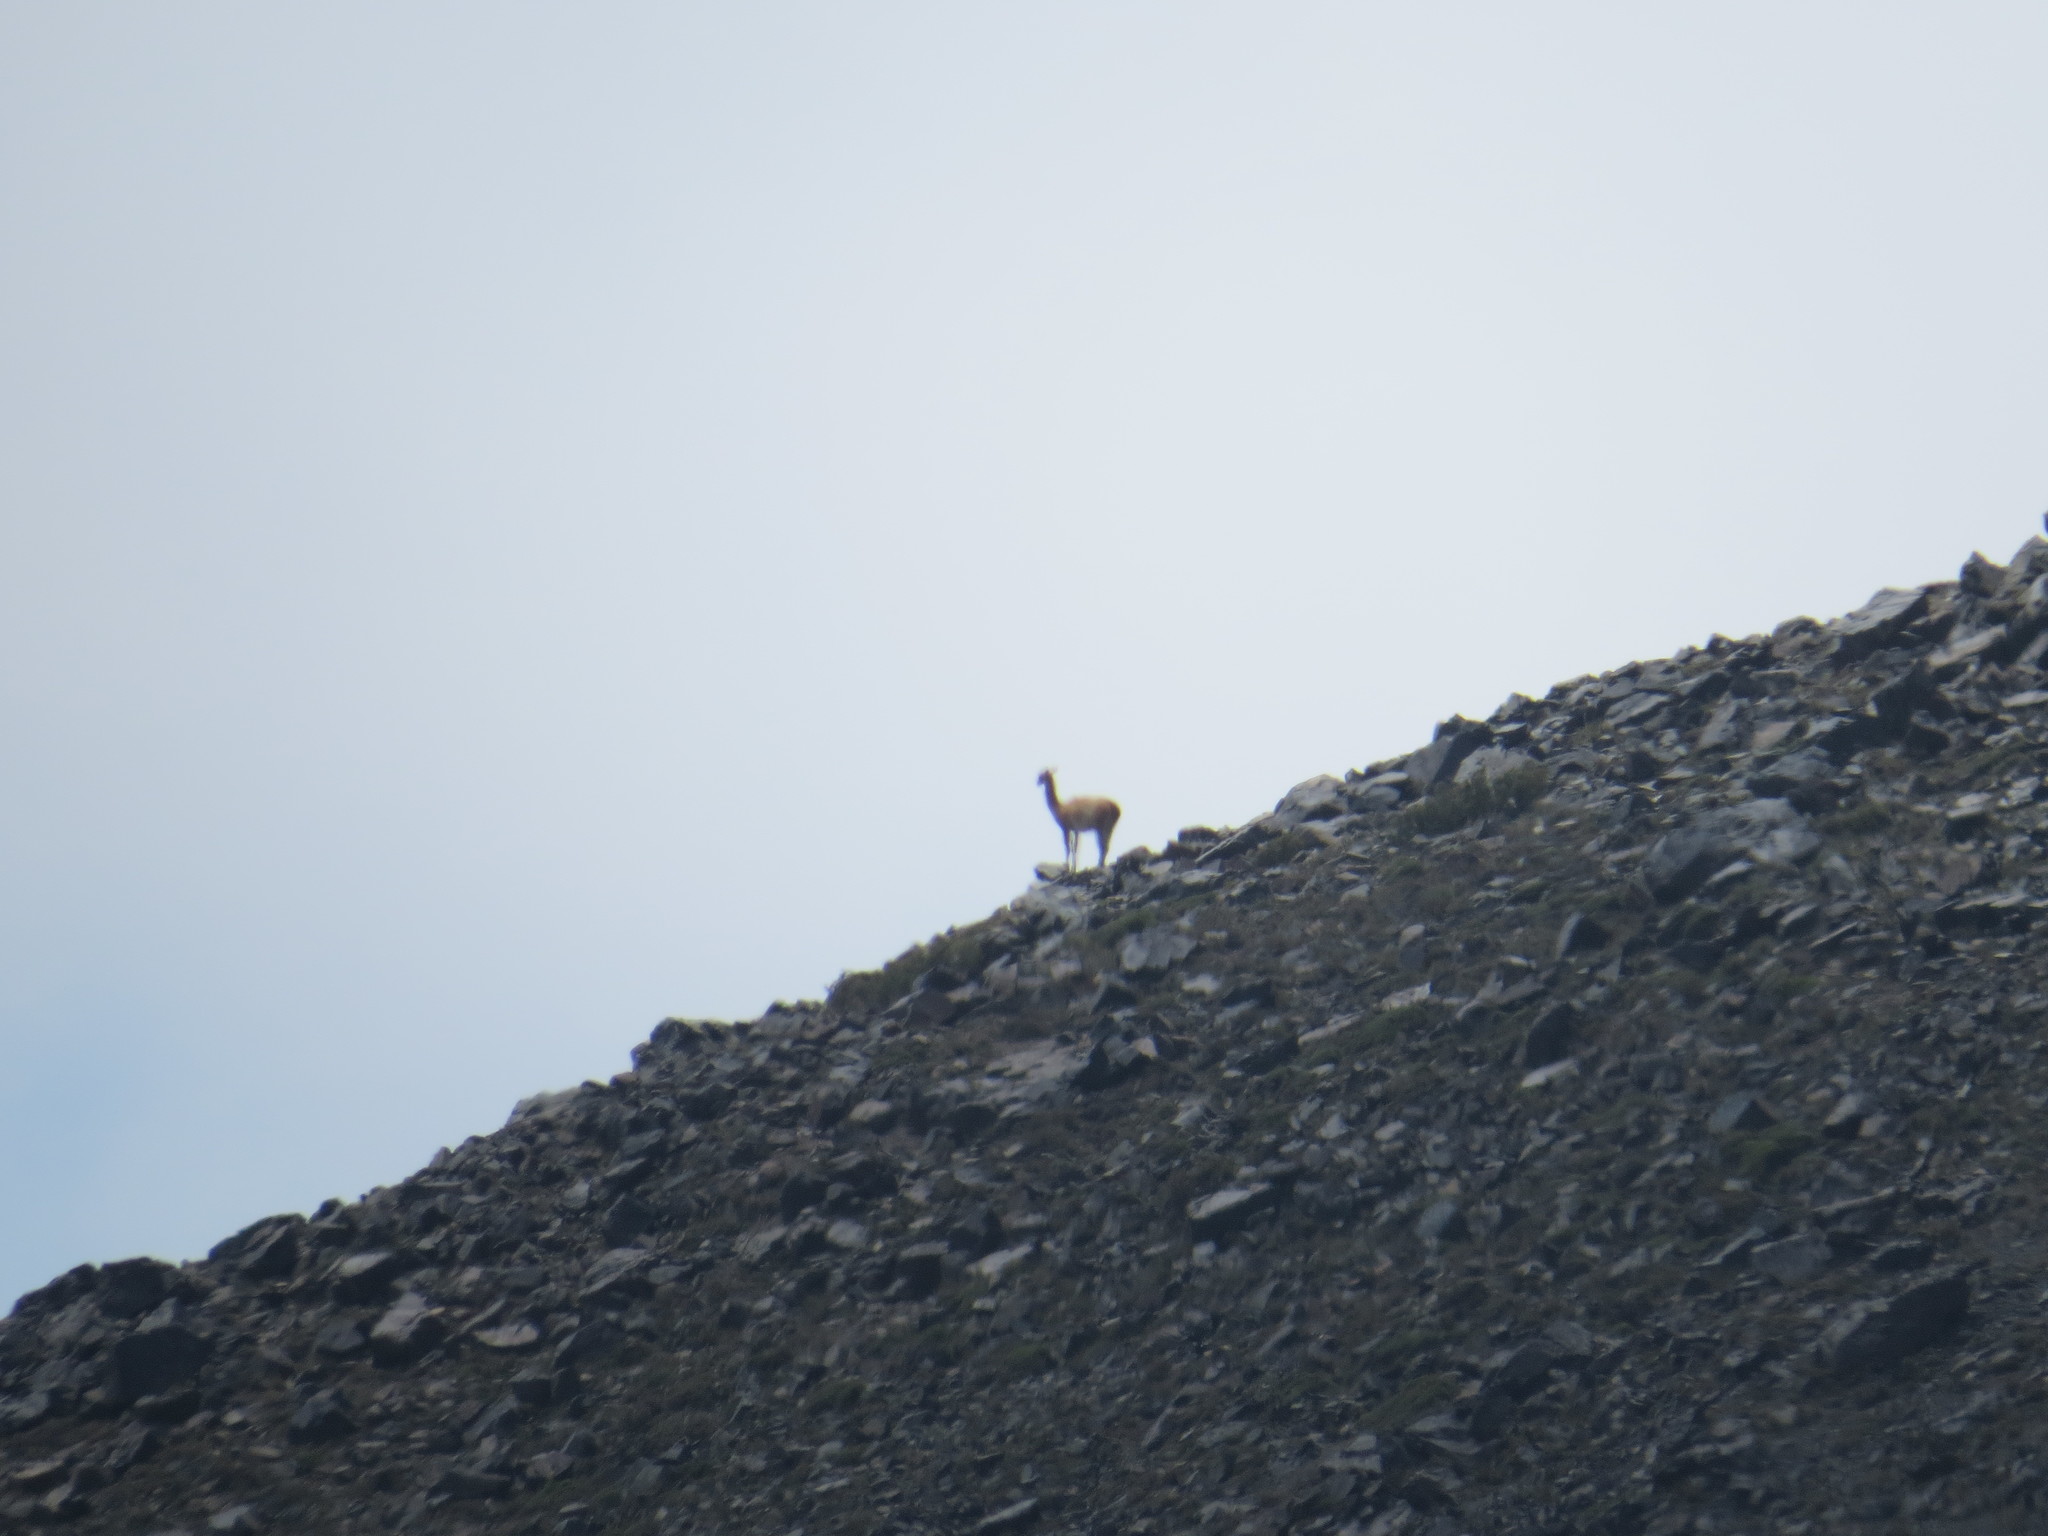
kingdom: Animalia
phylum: Chordata
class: Mammalia
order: Artiodactyla
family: Camelidae
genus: Lama
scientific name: Lama glama
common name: Llama
